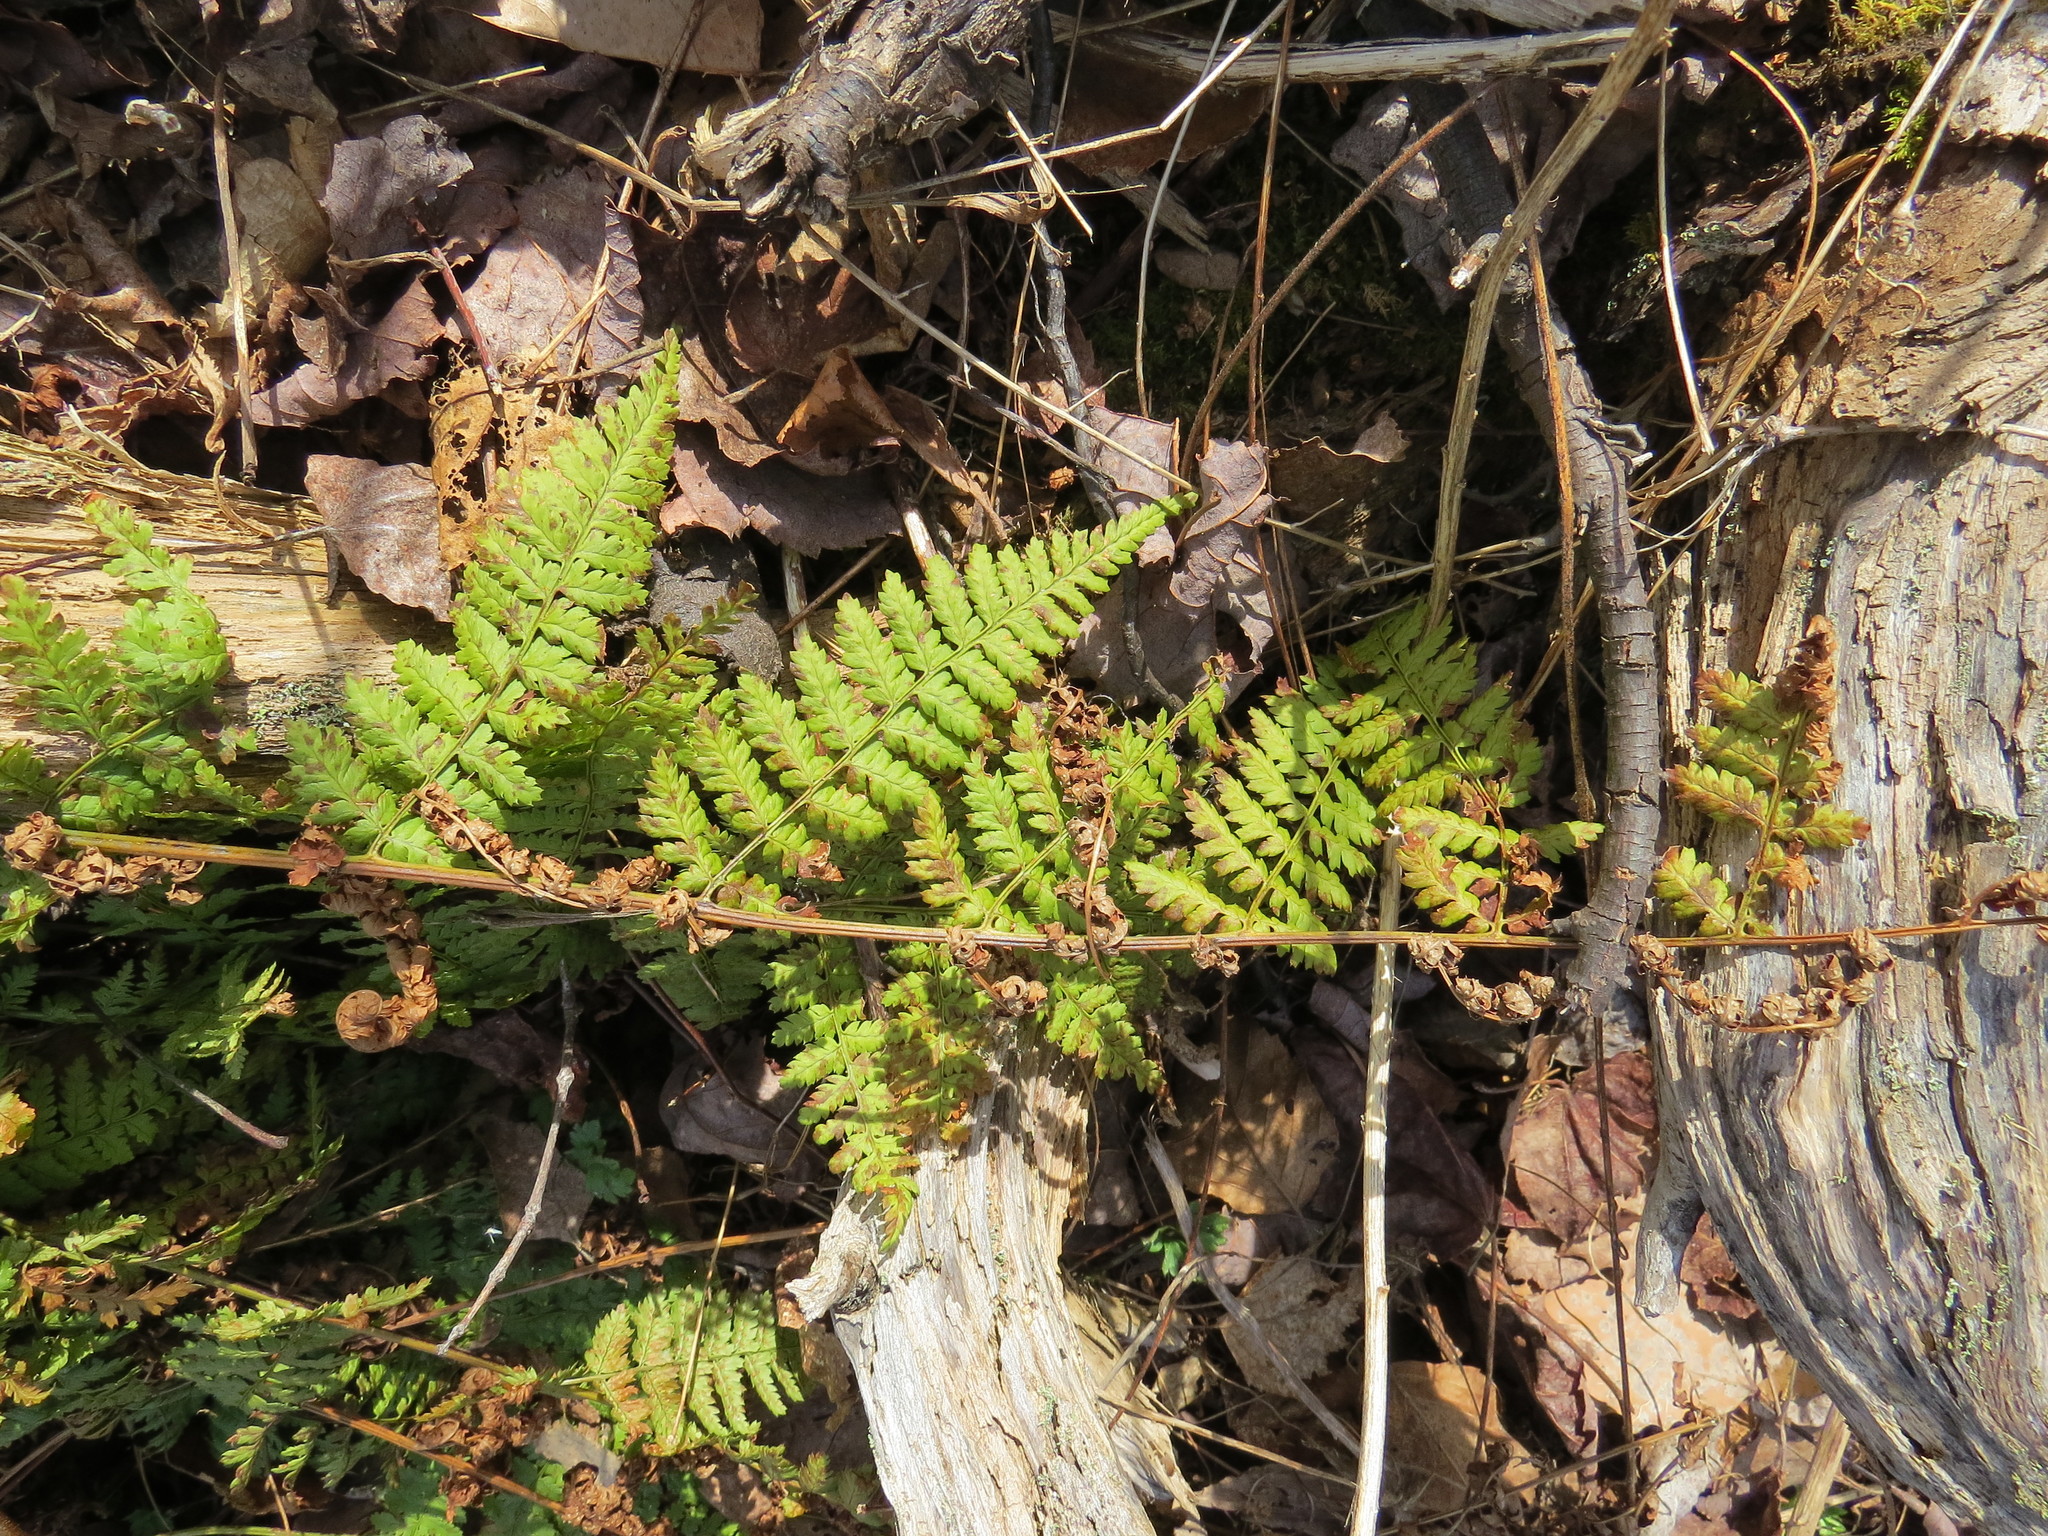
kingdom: Plantae
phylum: Tracheophyta
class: Polypodiopsida
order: Polypodiales
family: Dryopteridaceae
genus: Dryopteris
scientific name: Dryopteris intermedia
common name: Evergreen wood fern
